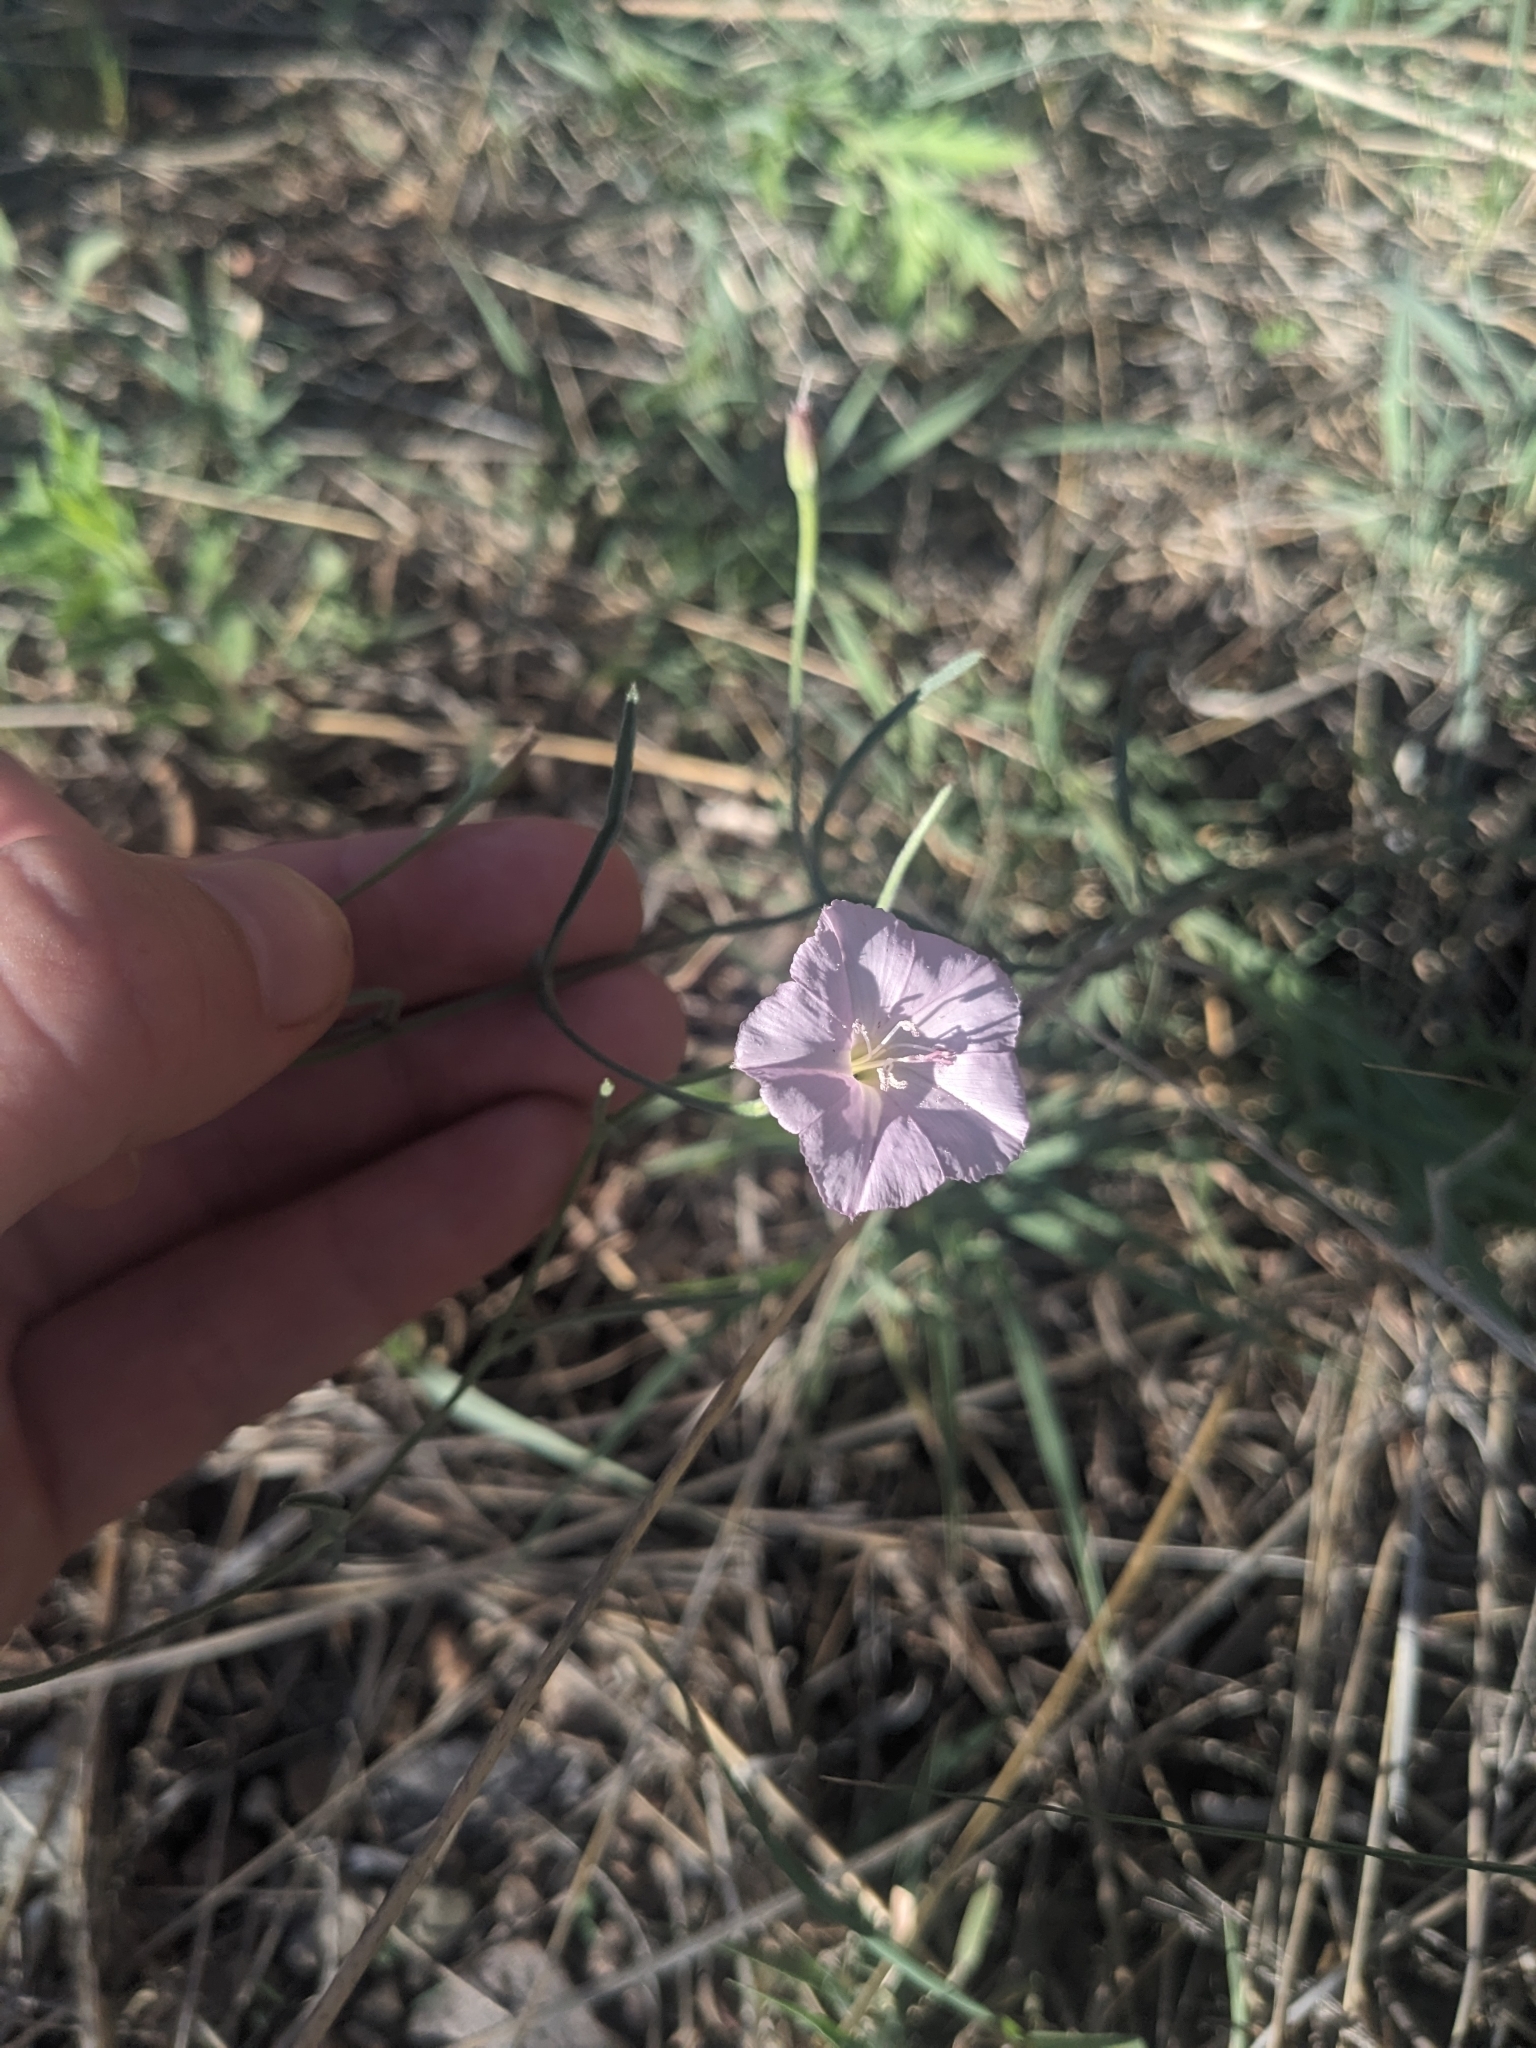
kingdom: Plantae
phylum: Tracheophyta
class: Magnoliopsida
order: Solanales
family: Convolvulaceae
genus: Convolvulus
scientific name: Convolvulus equitans
